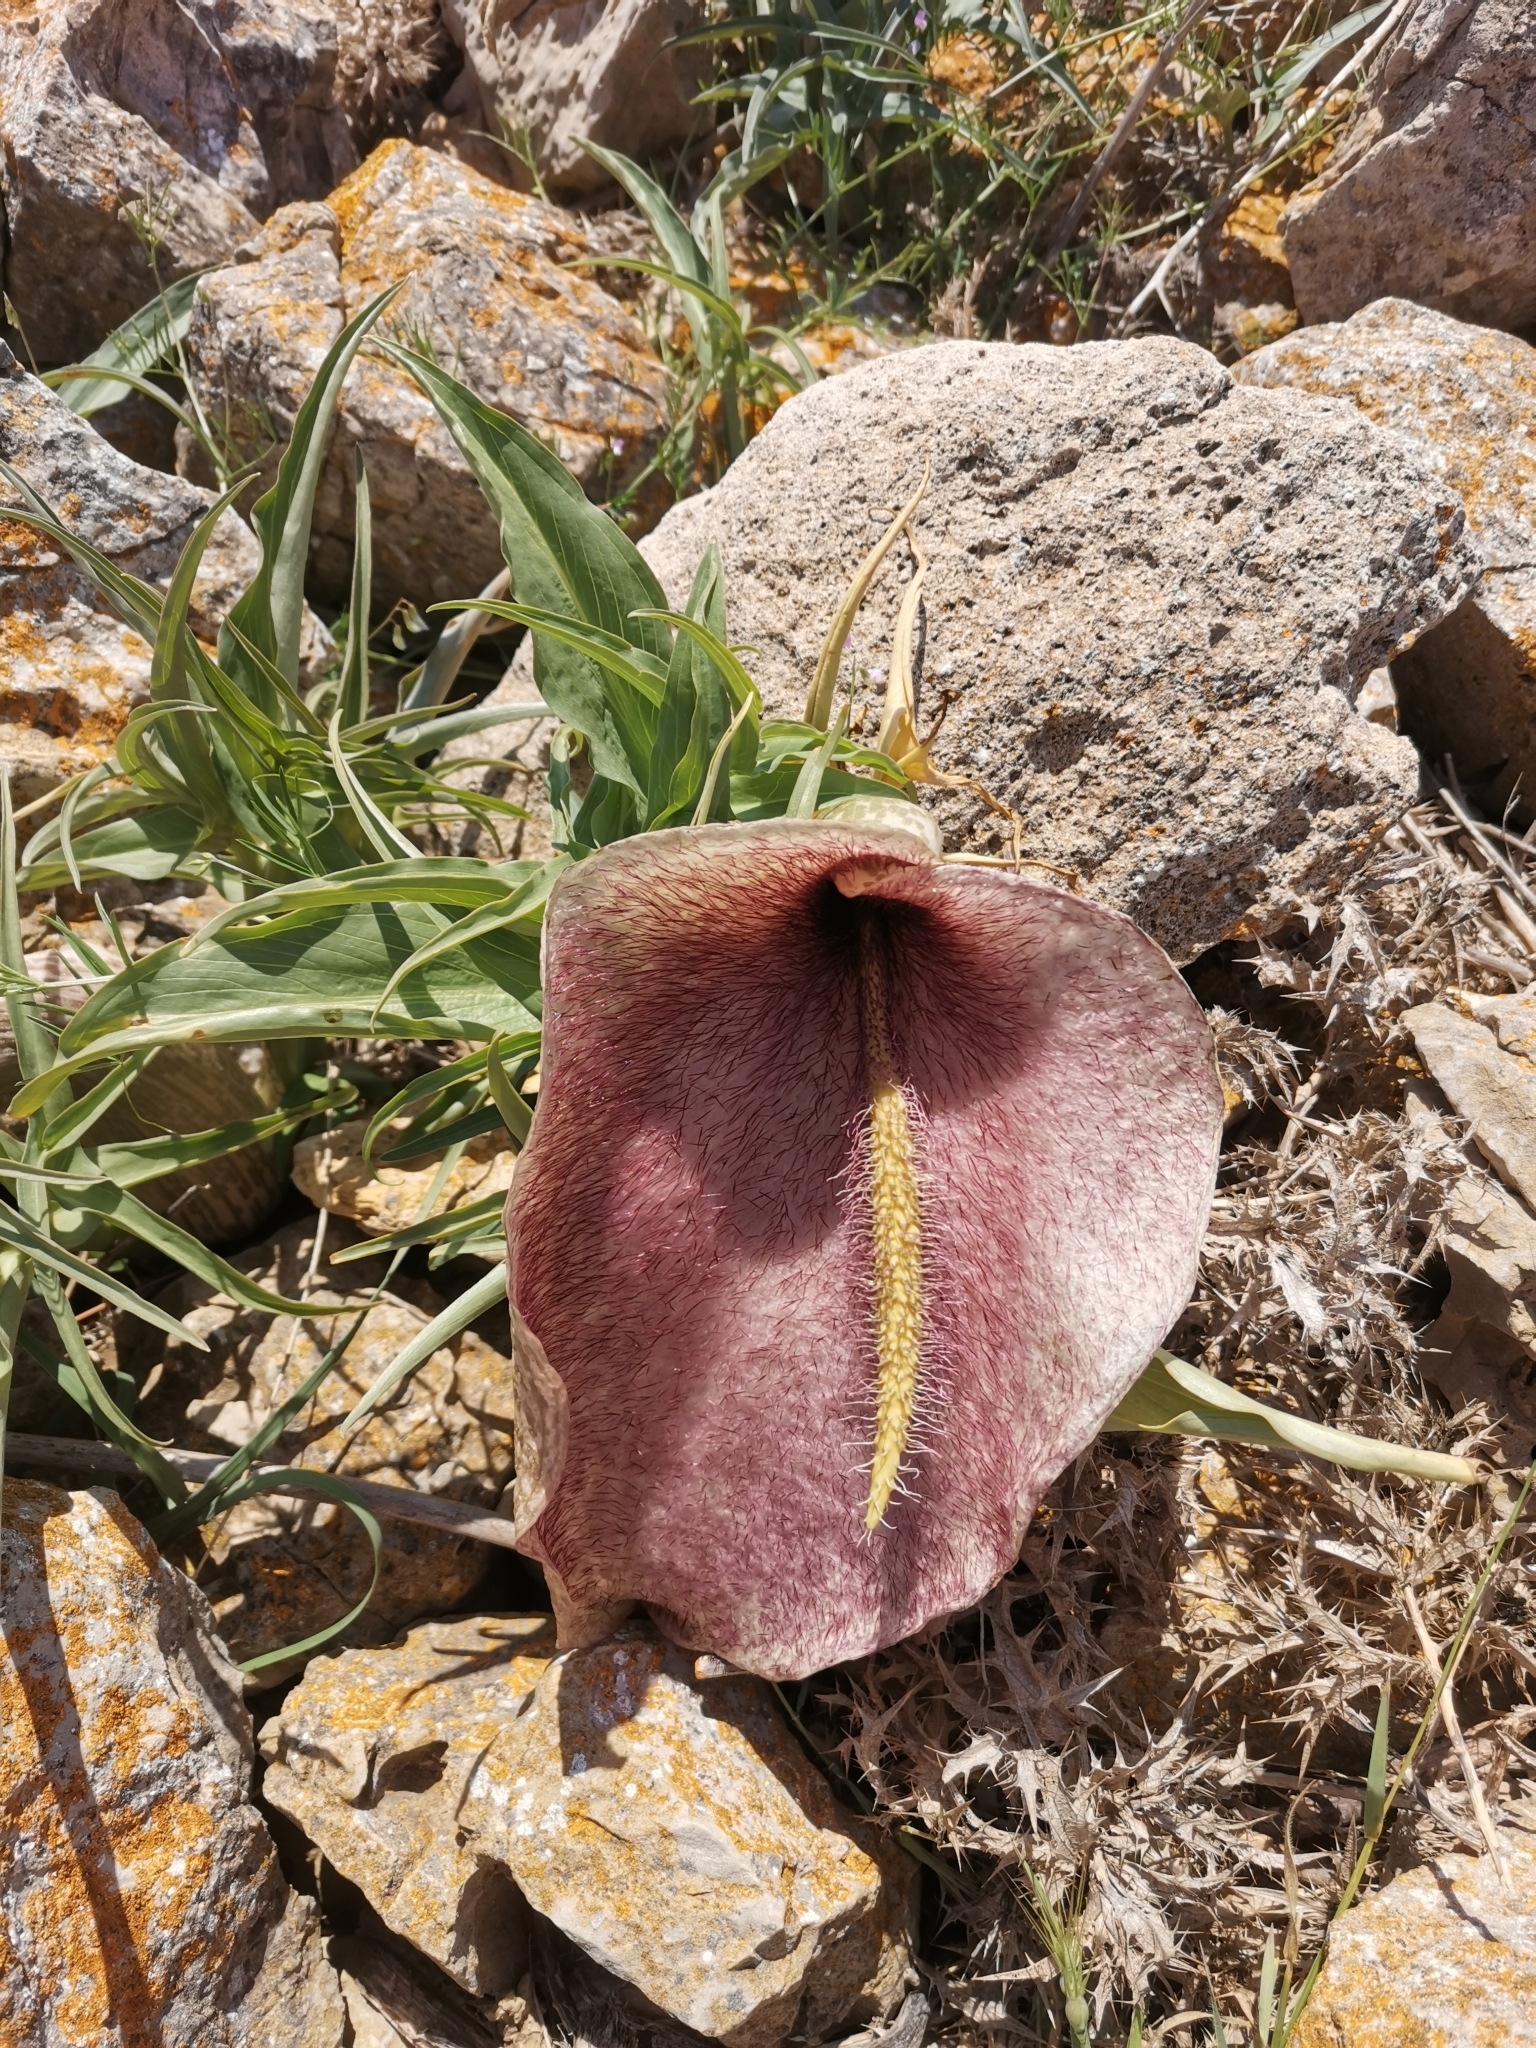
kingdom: Plantae
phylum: Tracheophyta
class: Liliopsida
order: Alismatales
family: Araceae
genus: Helicodiceros
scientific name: Helicodiceros muscivorus
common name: Snakeroot
